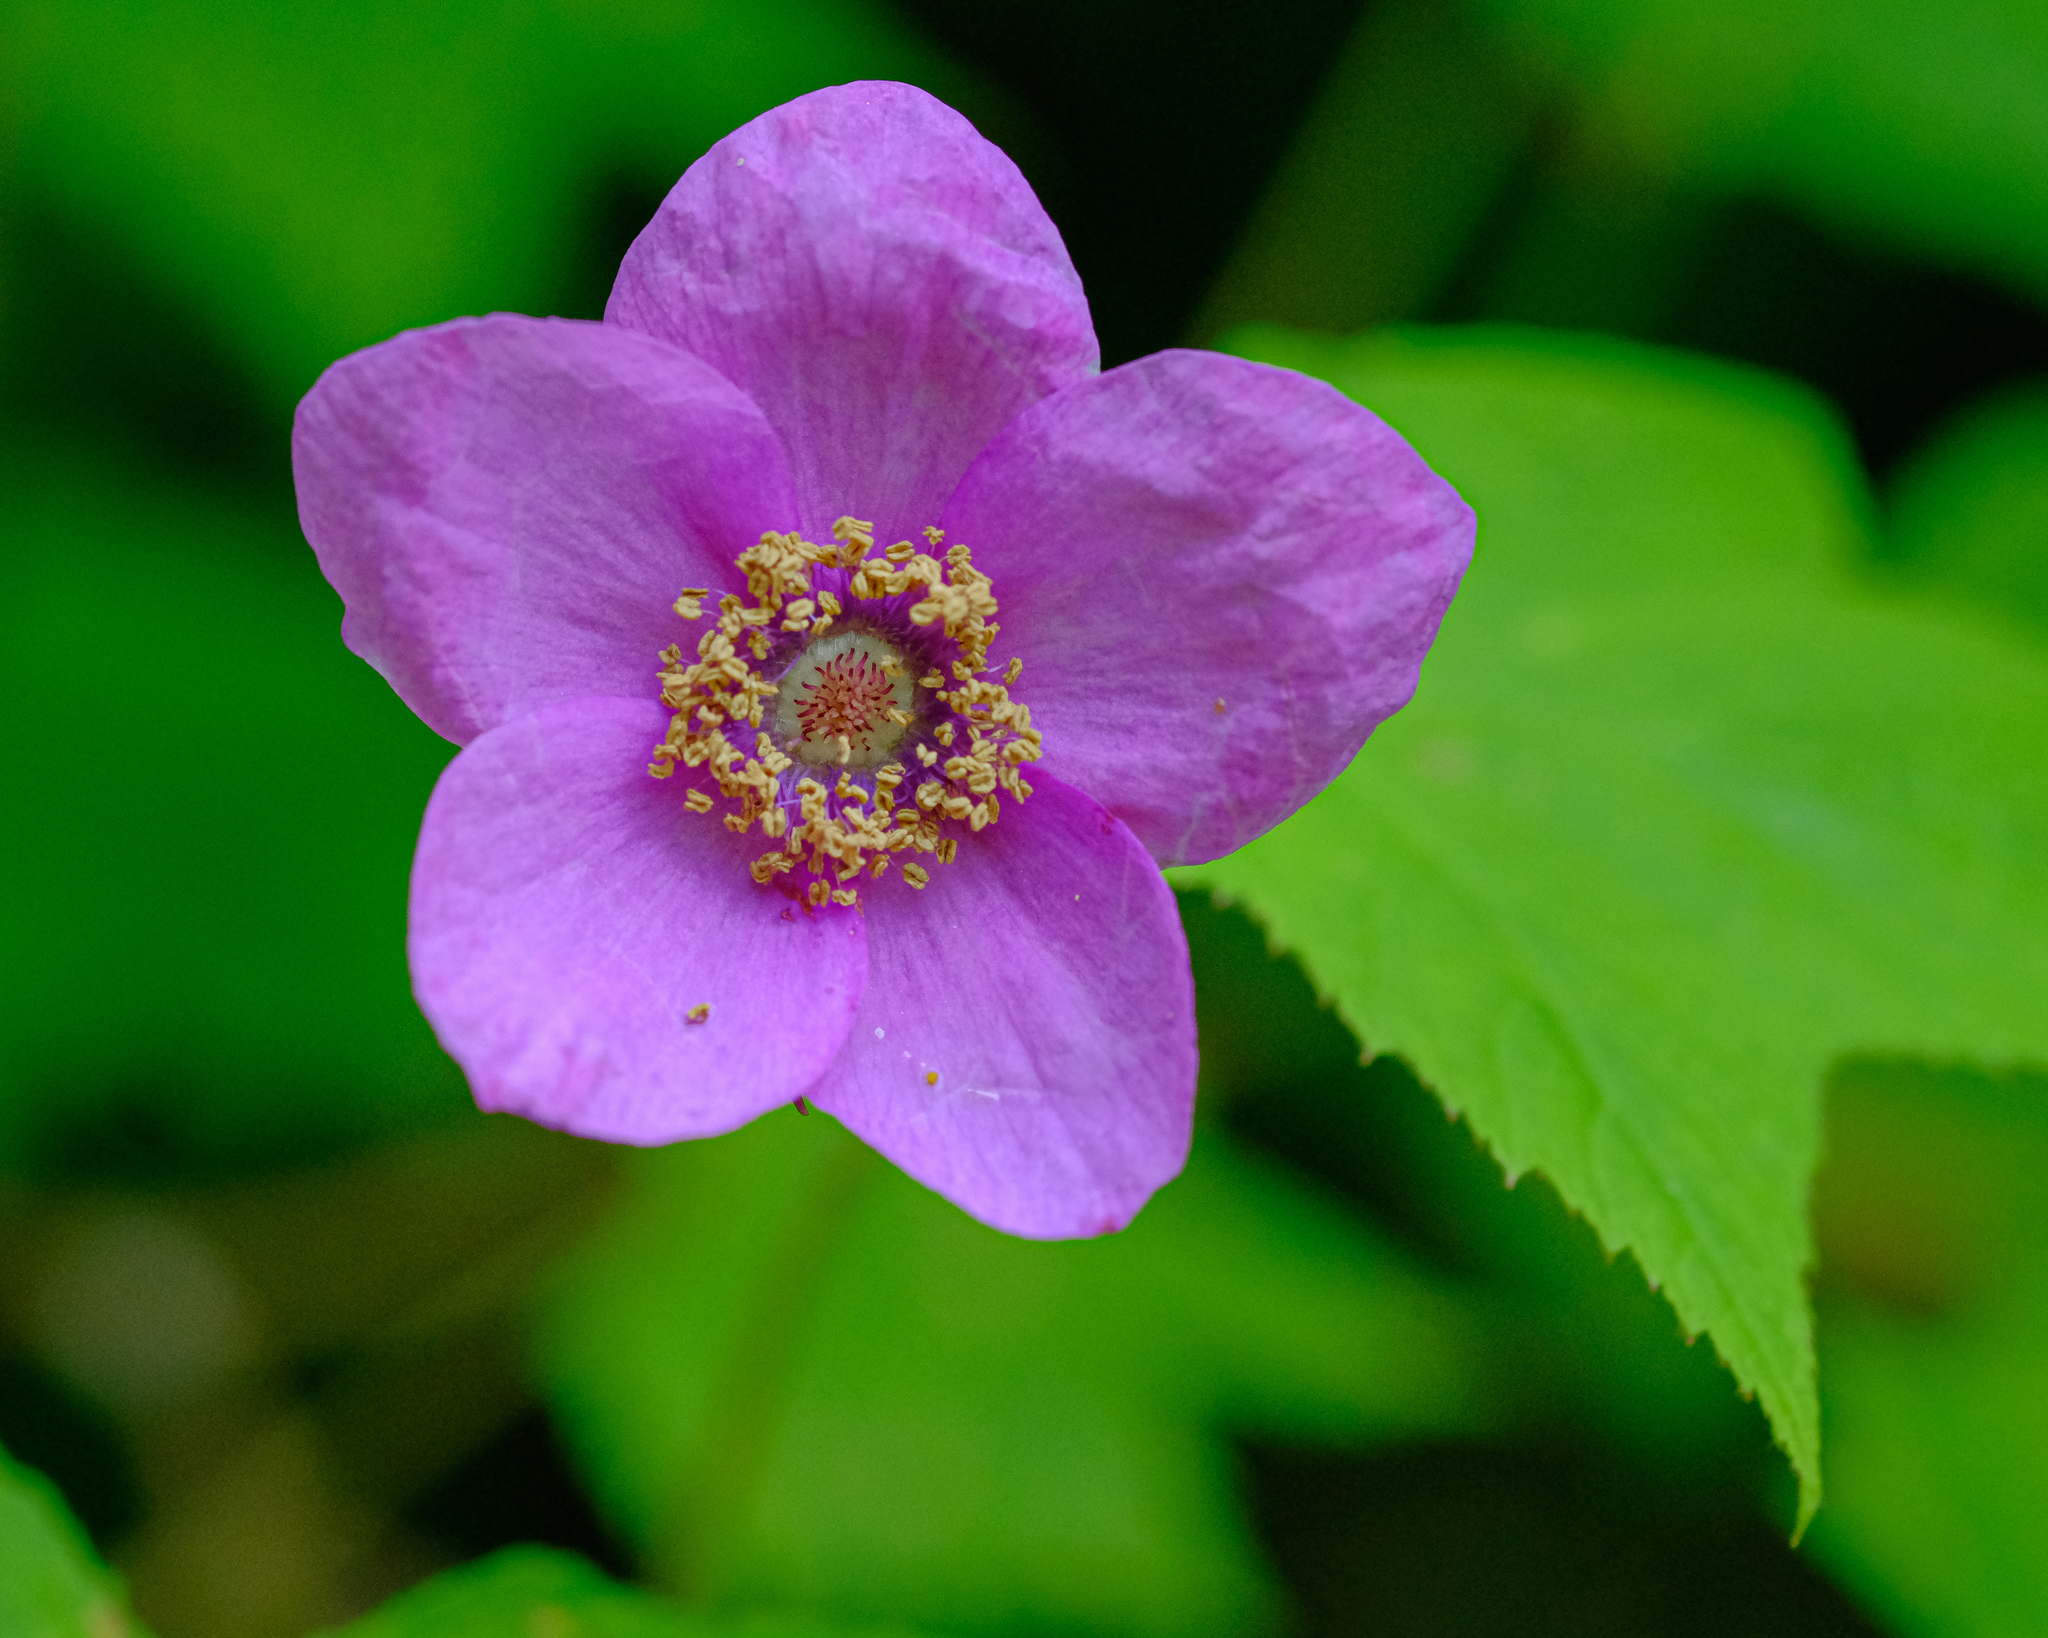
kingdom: Plantae
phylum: Tracheophyta
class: Magnoliopsida
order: Rosales
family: Rosaceae
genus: Rubus
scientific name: Rubus odoratus
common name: Purple-flowered raspberry
